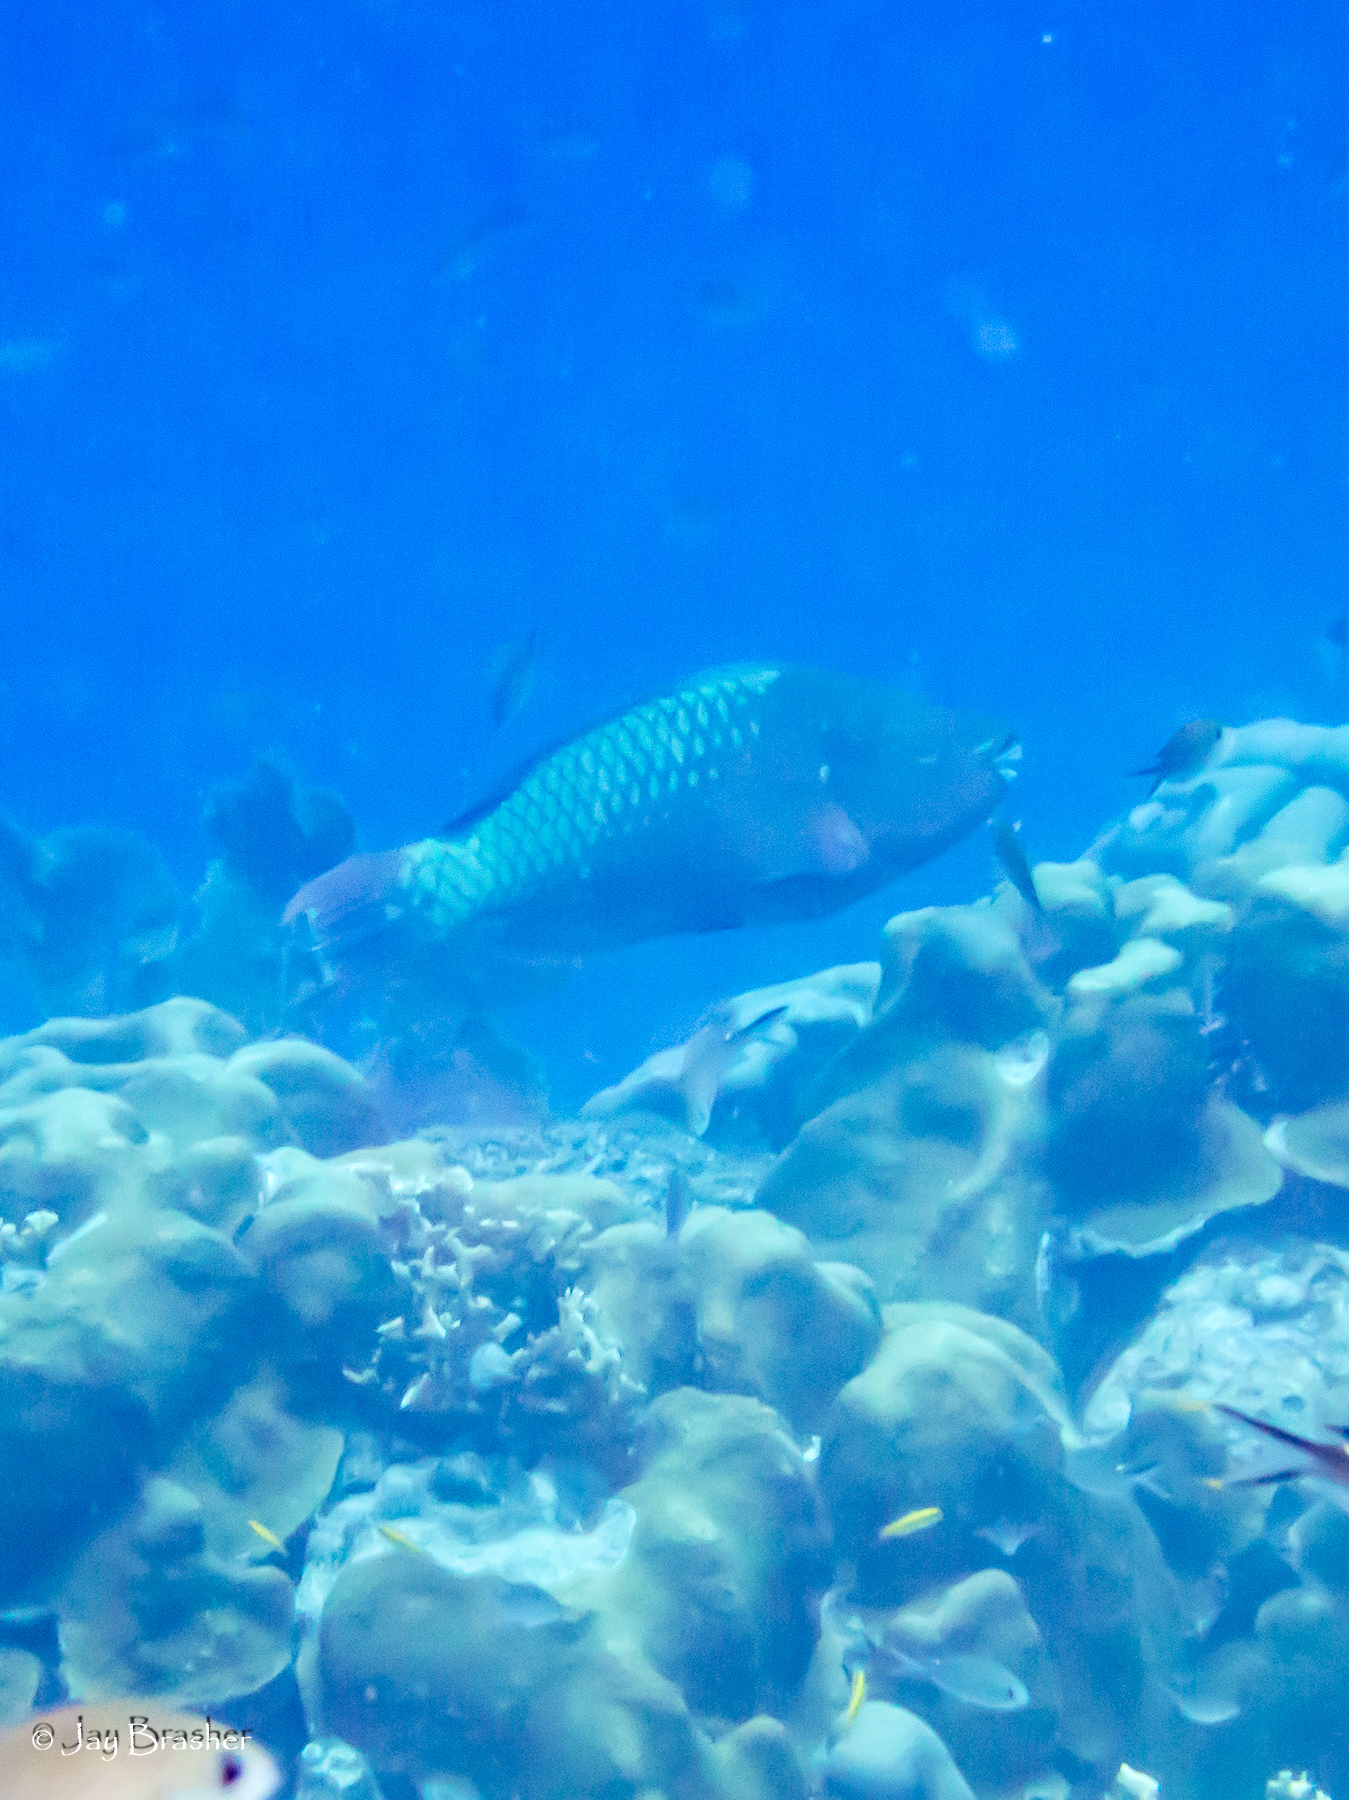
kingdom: Animalia
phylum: Chordata
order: Perciformes
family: Scaridae
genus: Scarus
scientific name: Scarus guacamaia
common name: Rainbow parrotfish
